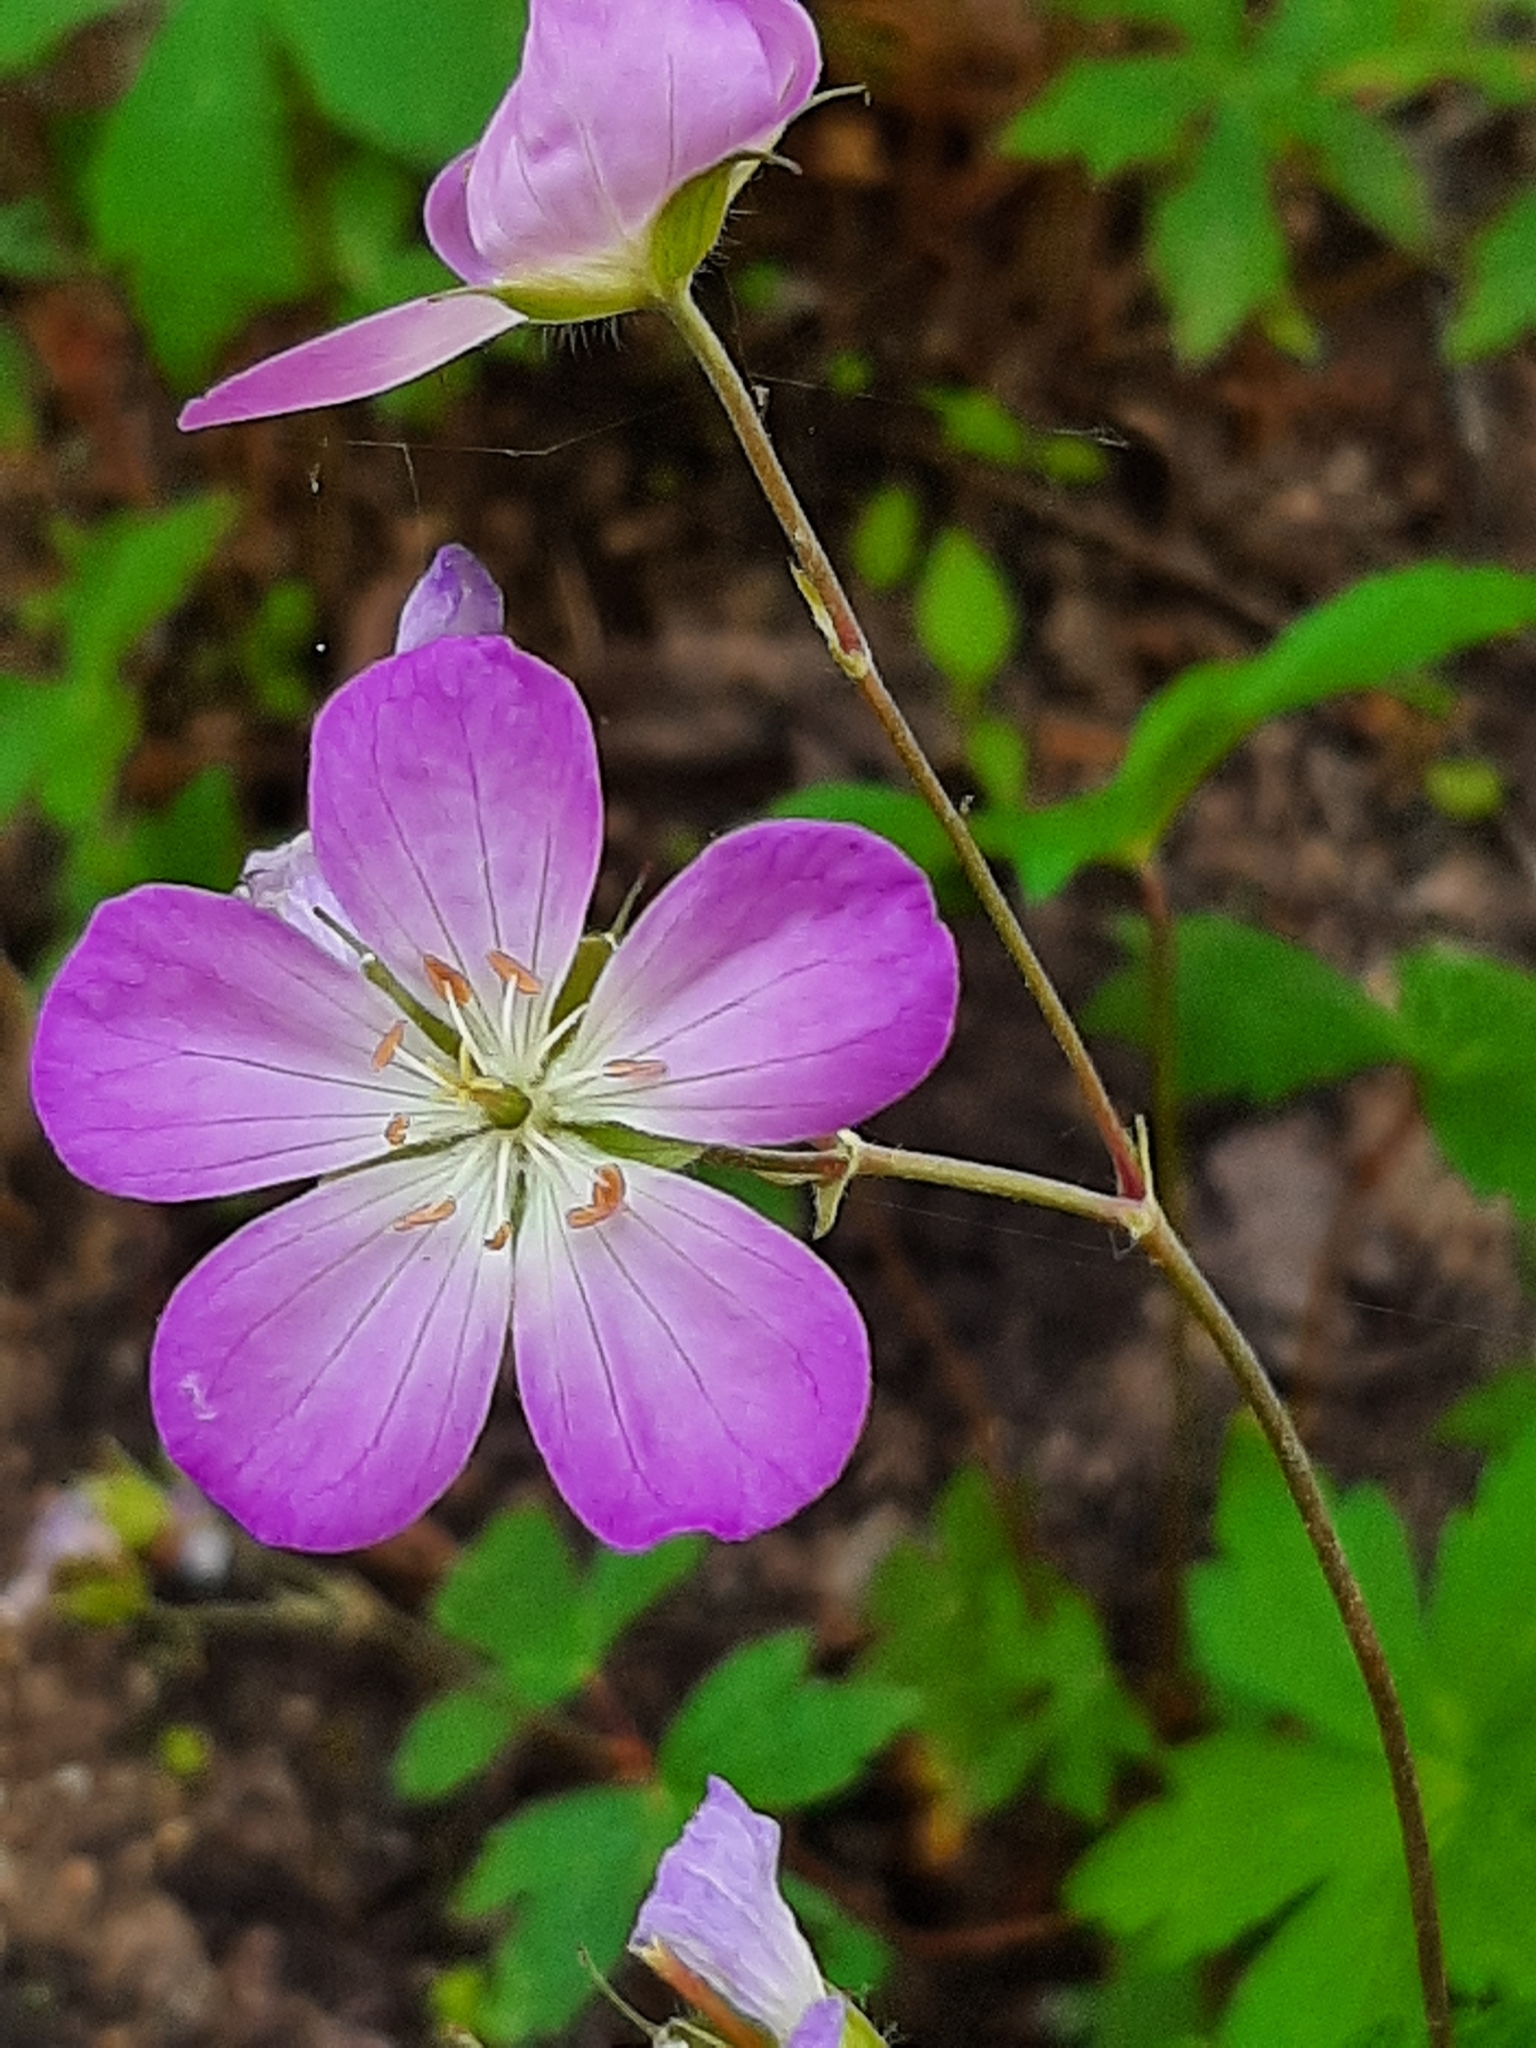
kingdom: Plantae
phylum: Tracheophyta
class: Magnoliopsida
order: Geraniales
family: Geraniaceae
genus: Geranium
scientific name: Geranium maculatum
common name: Spotted geranium
